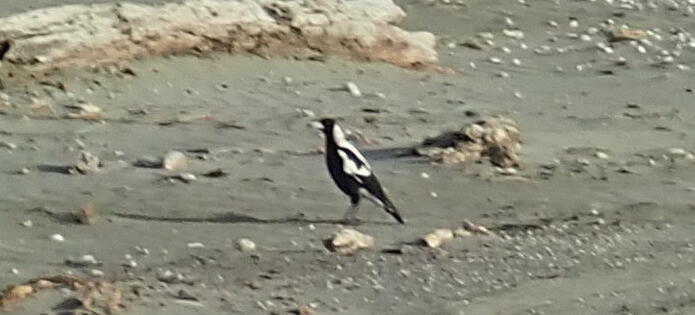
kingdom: Animalia
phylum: Chordata
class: Aves
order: Passeriformes
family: Cracticidae
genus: Gymnorhina
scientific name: Gymnorhina tibicen
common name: Australian magpie
